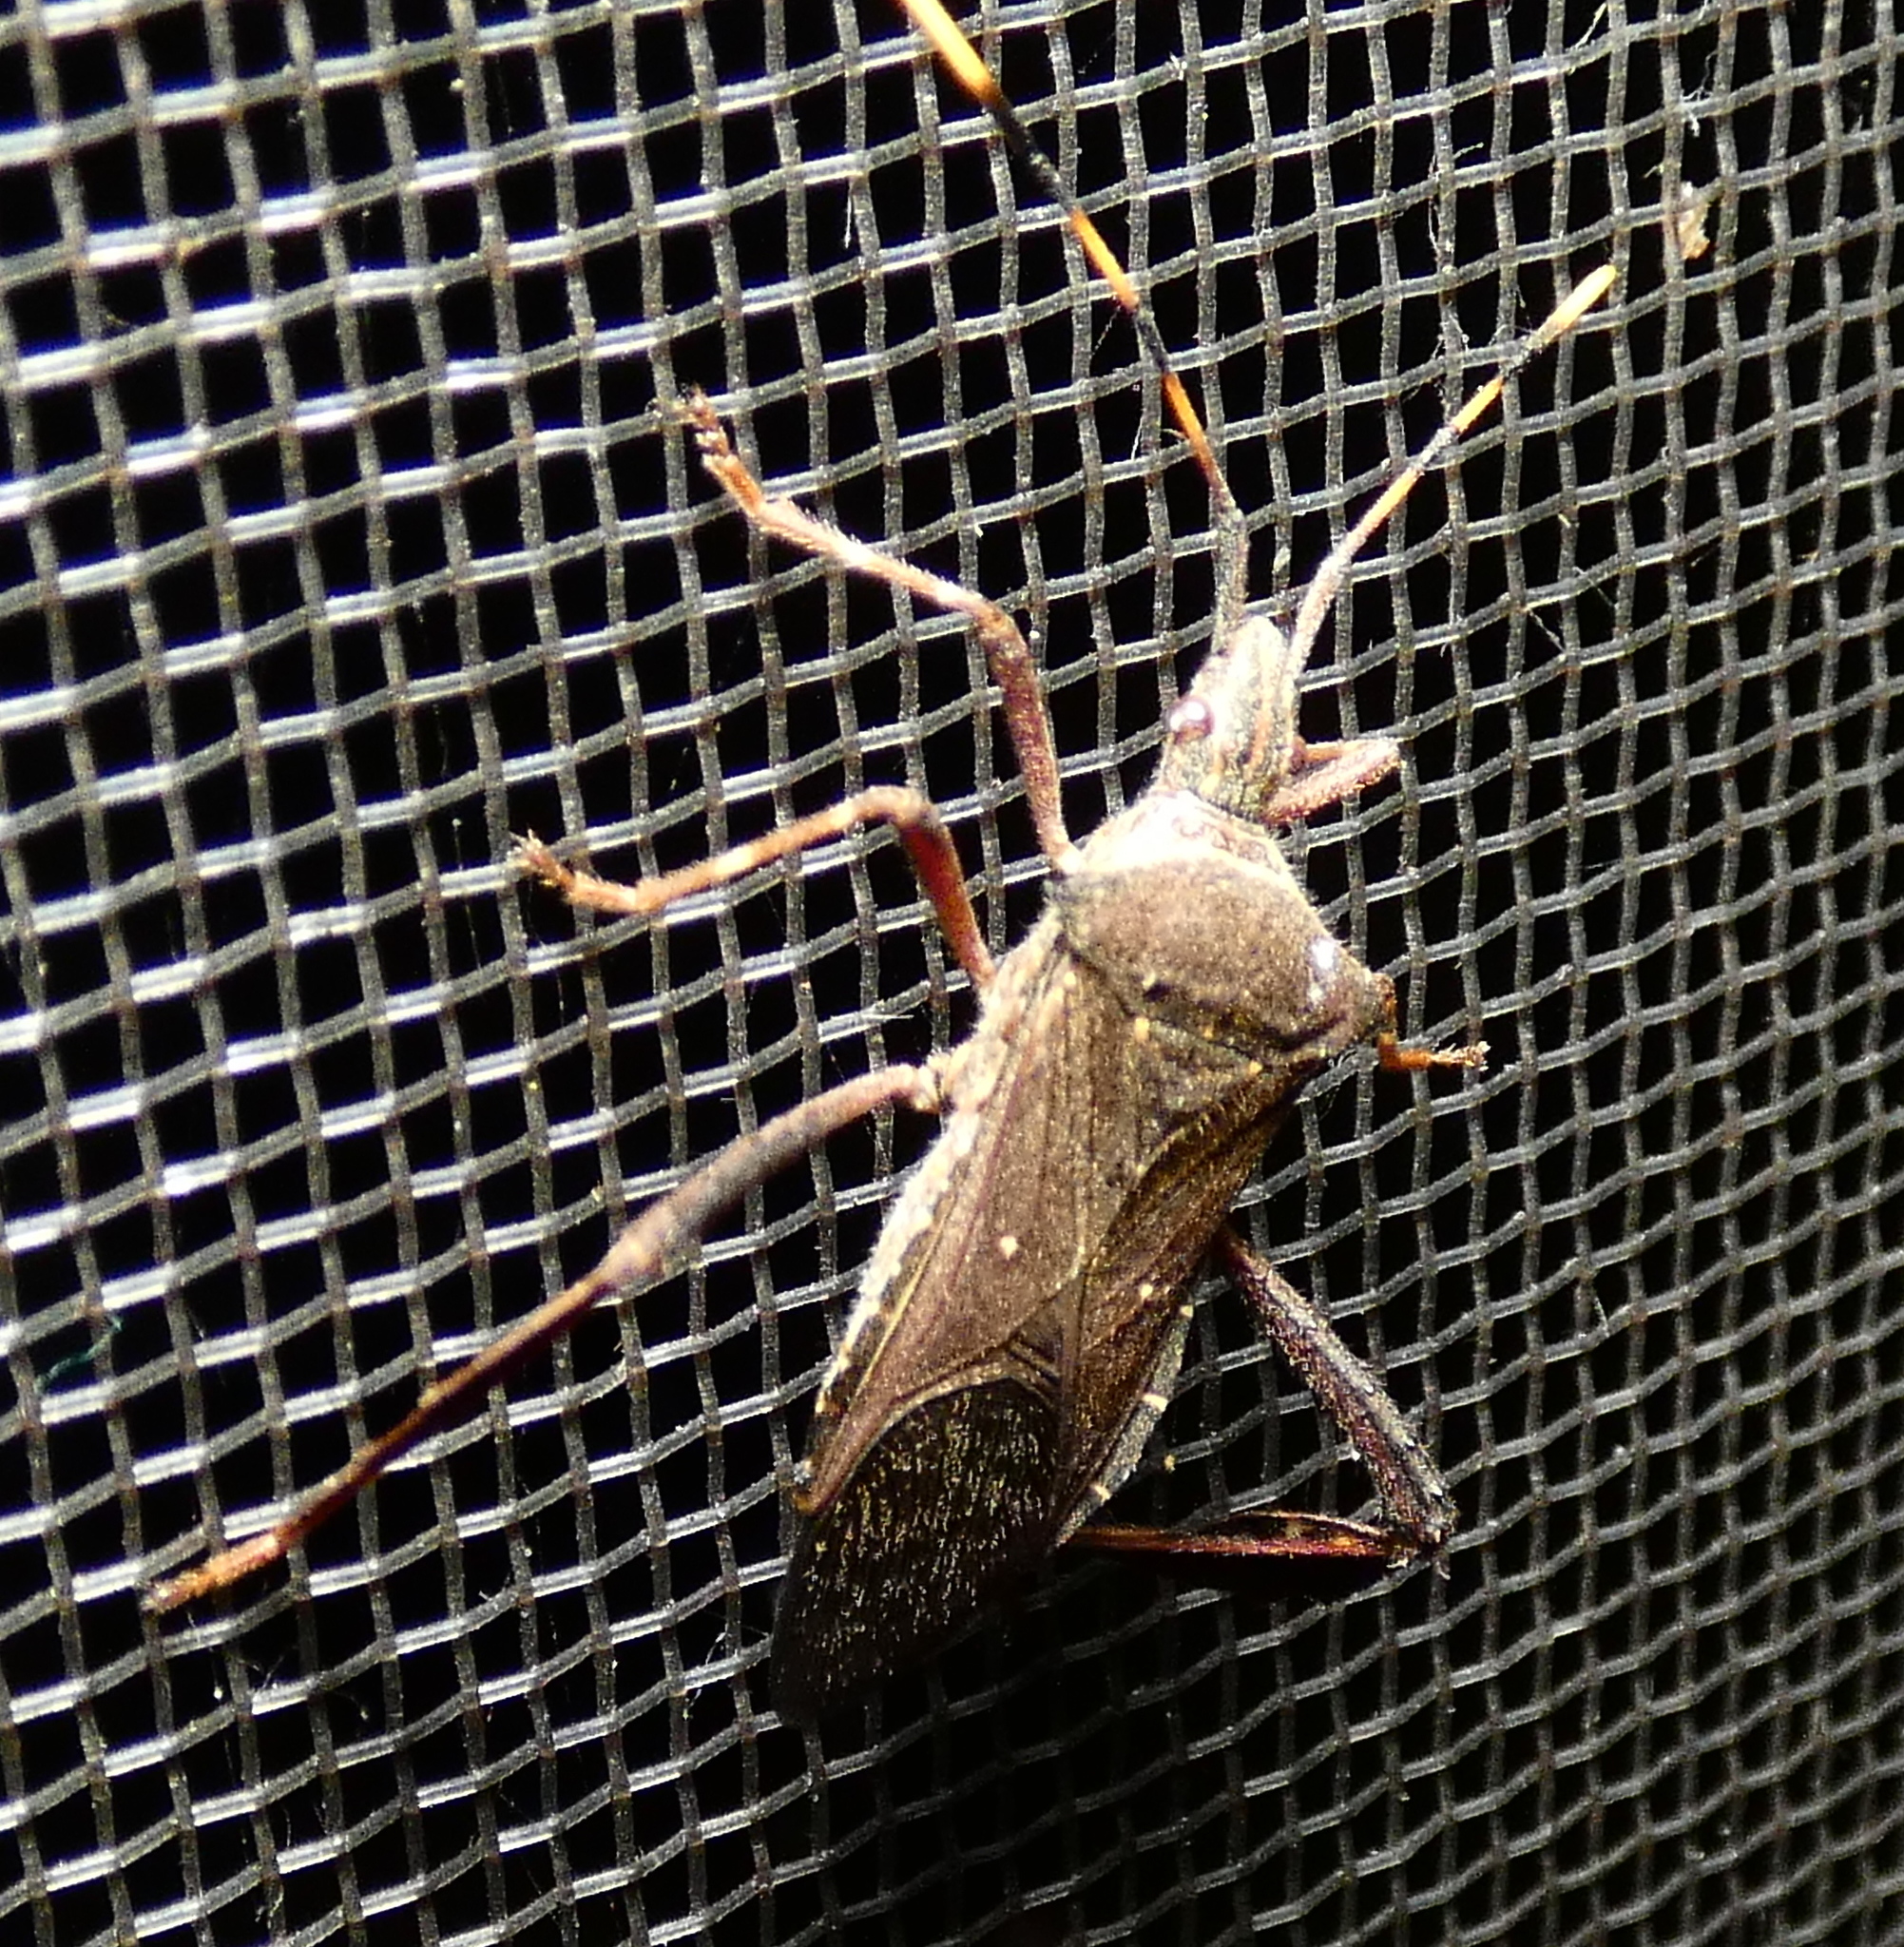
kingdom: Animalia
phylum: Arthropoda
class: Insecta
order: Hemiptera
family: Coreidae
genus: Leptoglossus
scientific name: Leptoglossus gonagra
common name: Citron bug
